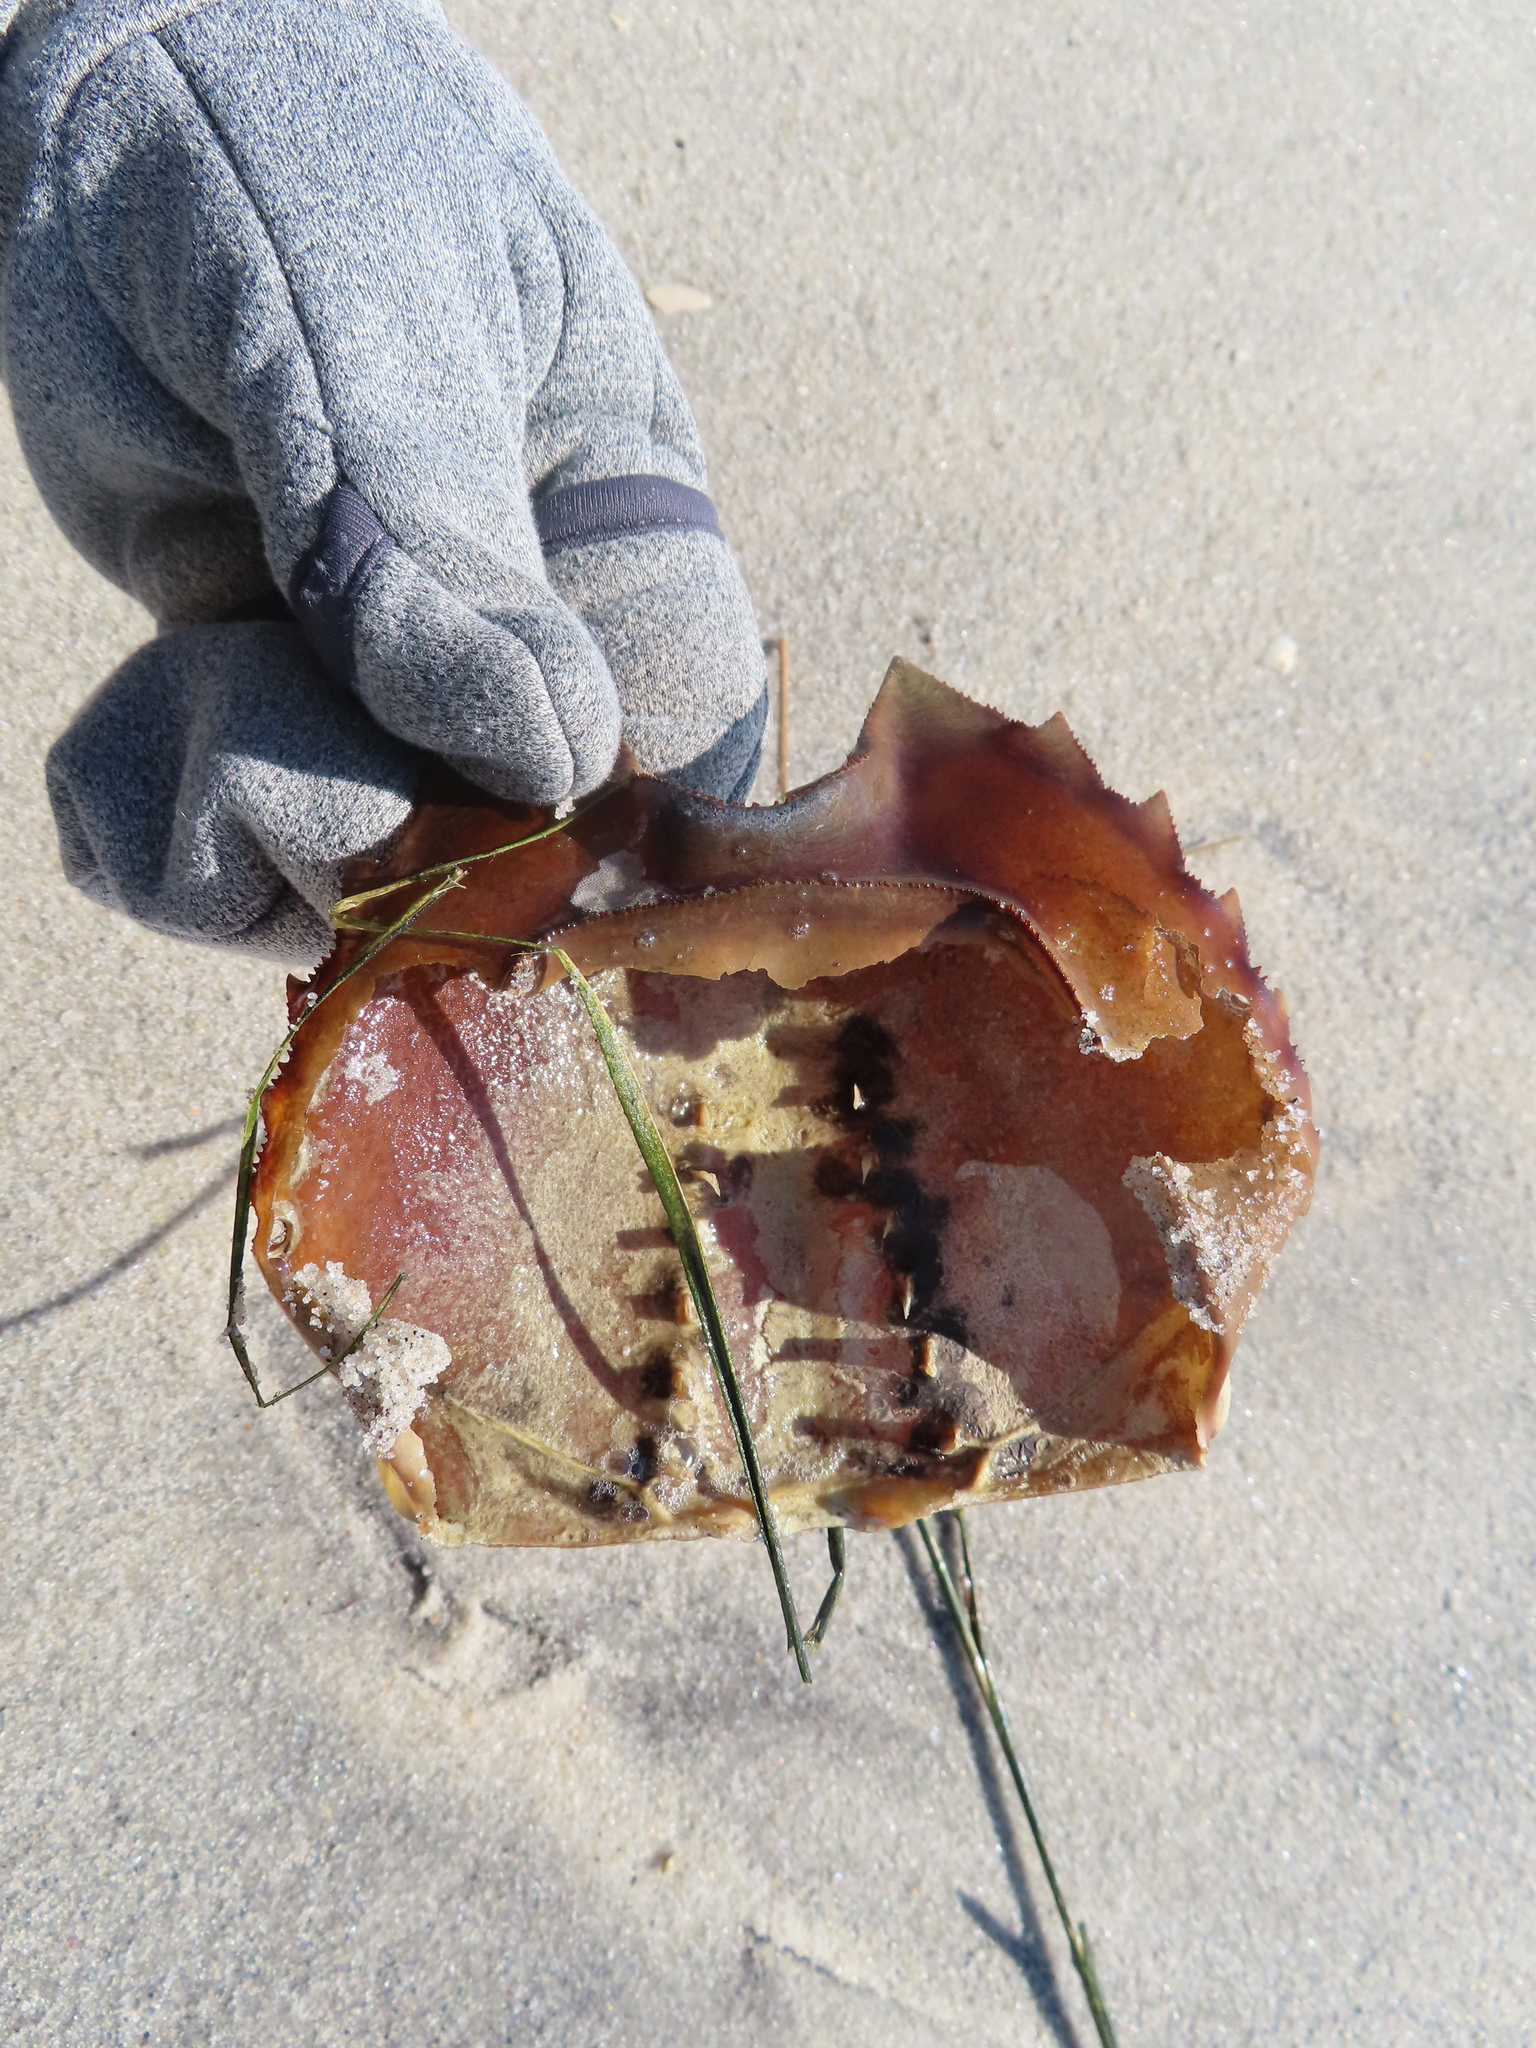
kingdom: Animalia
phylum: Arthropoda
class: Merostomata
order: Xiphosurida
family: Limulidae
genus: Limulus
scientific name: Limulus polyphemus
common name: Horseshoe crab
